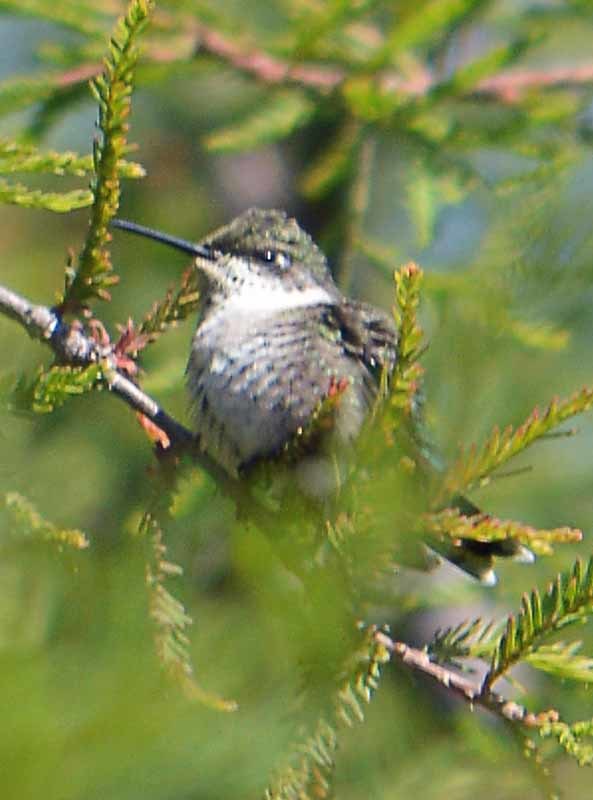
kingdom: Animalia
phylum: Chordata
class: Aves
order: Apodiformes
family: Trochilidae
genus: Archilochus
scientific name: Archilochus colubris
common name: Ruby-throated hummingbird
